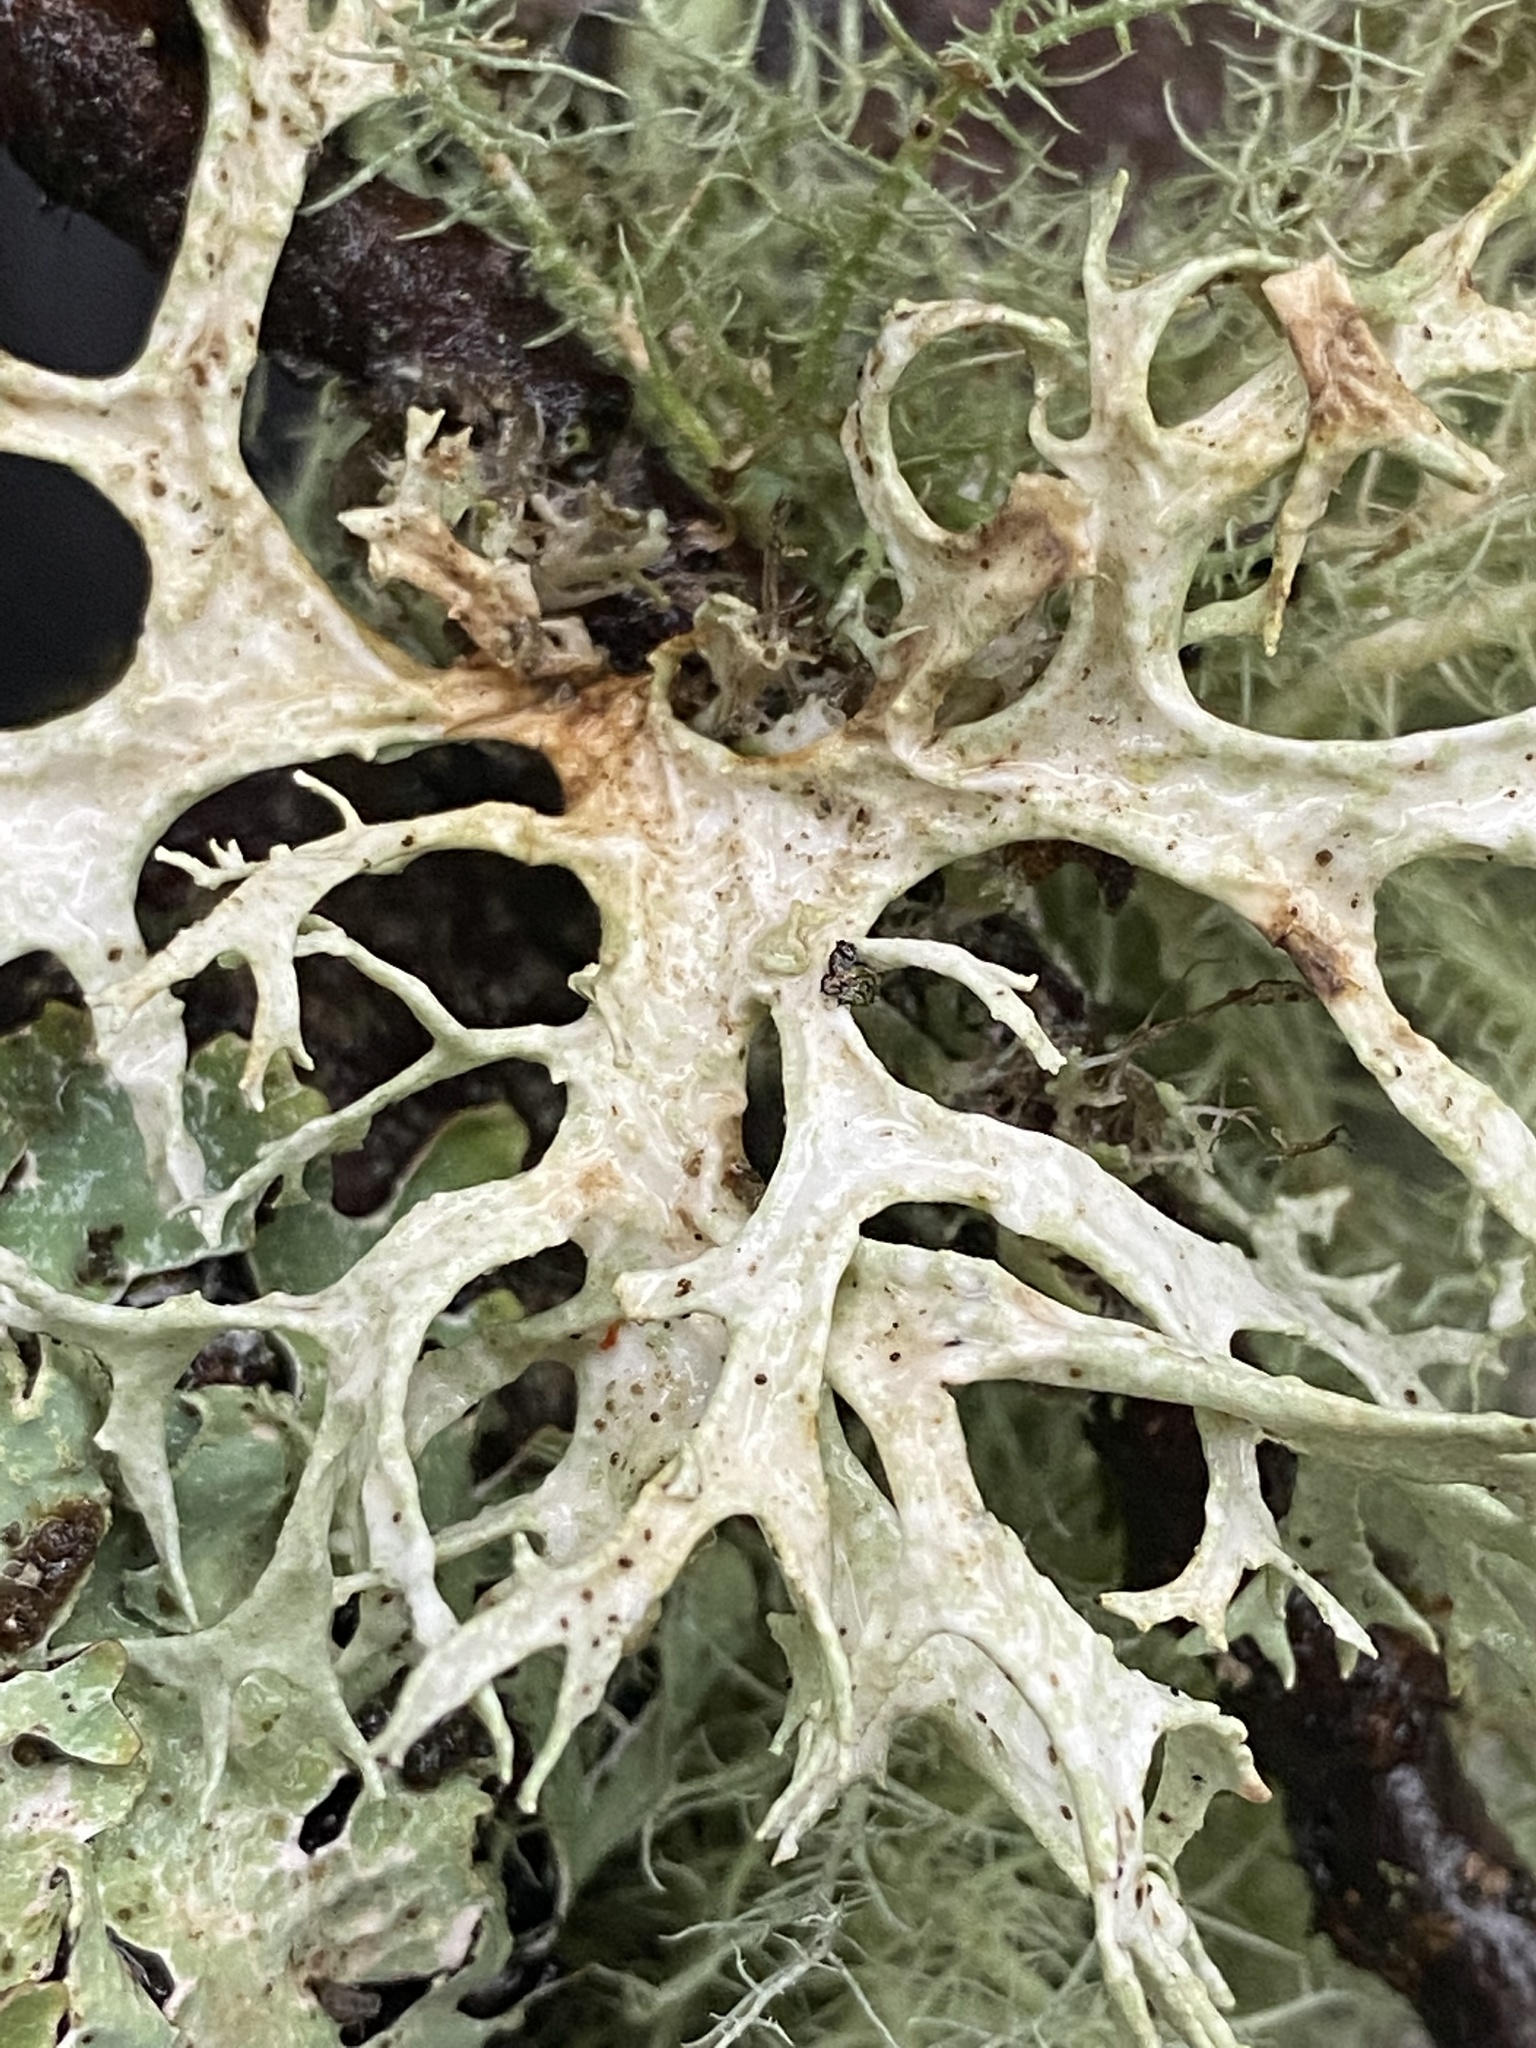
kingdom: Fungi
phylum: Ascomycota
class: Lecanoromycetes
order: Lecanorales
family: Parmeliaceae
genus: Evernia
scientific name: Evernia prunastri
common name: Oak moss
